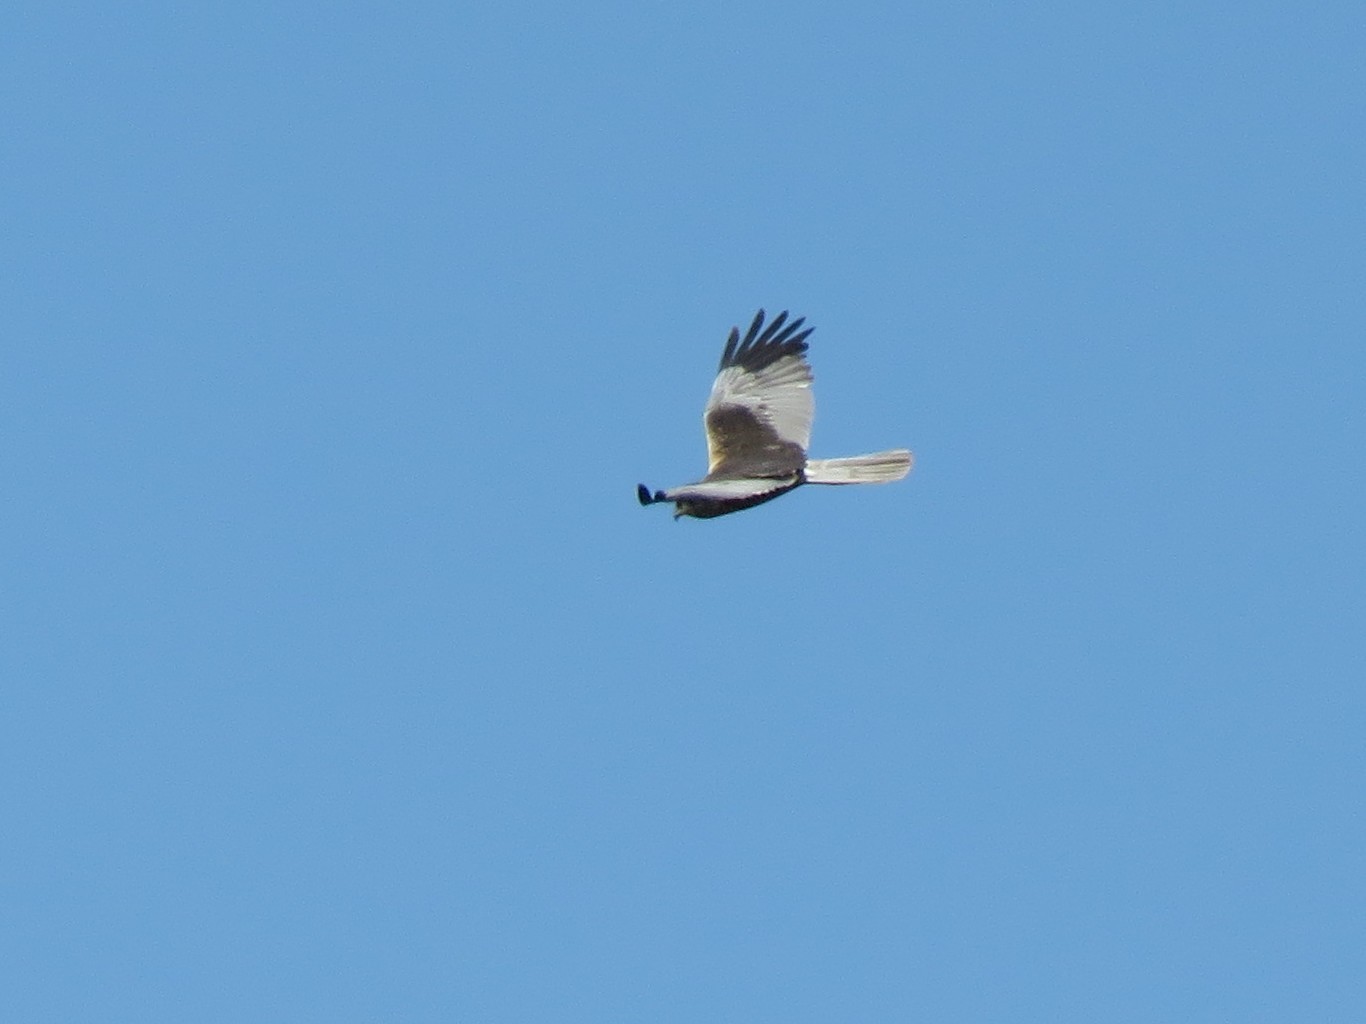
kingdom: Animalia
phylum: Chordata
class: Aves
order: Accipitriformes
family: Accipitridae
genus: Circus
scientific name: Circus aeruginosus
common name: Western marsh harrier
